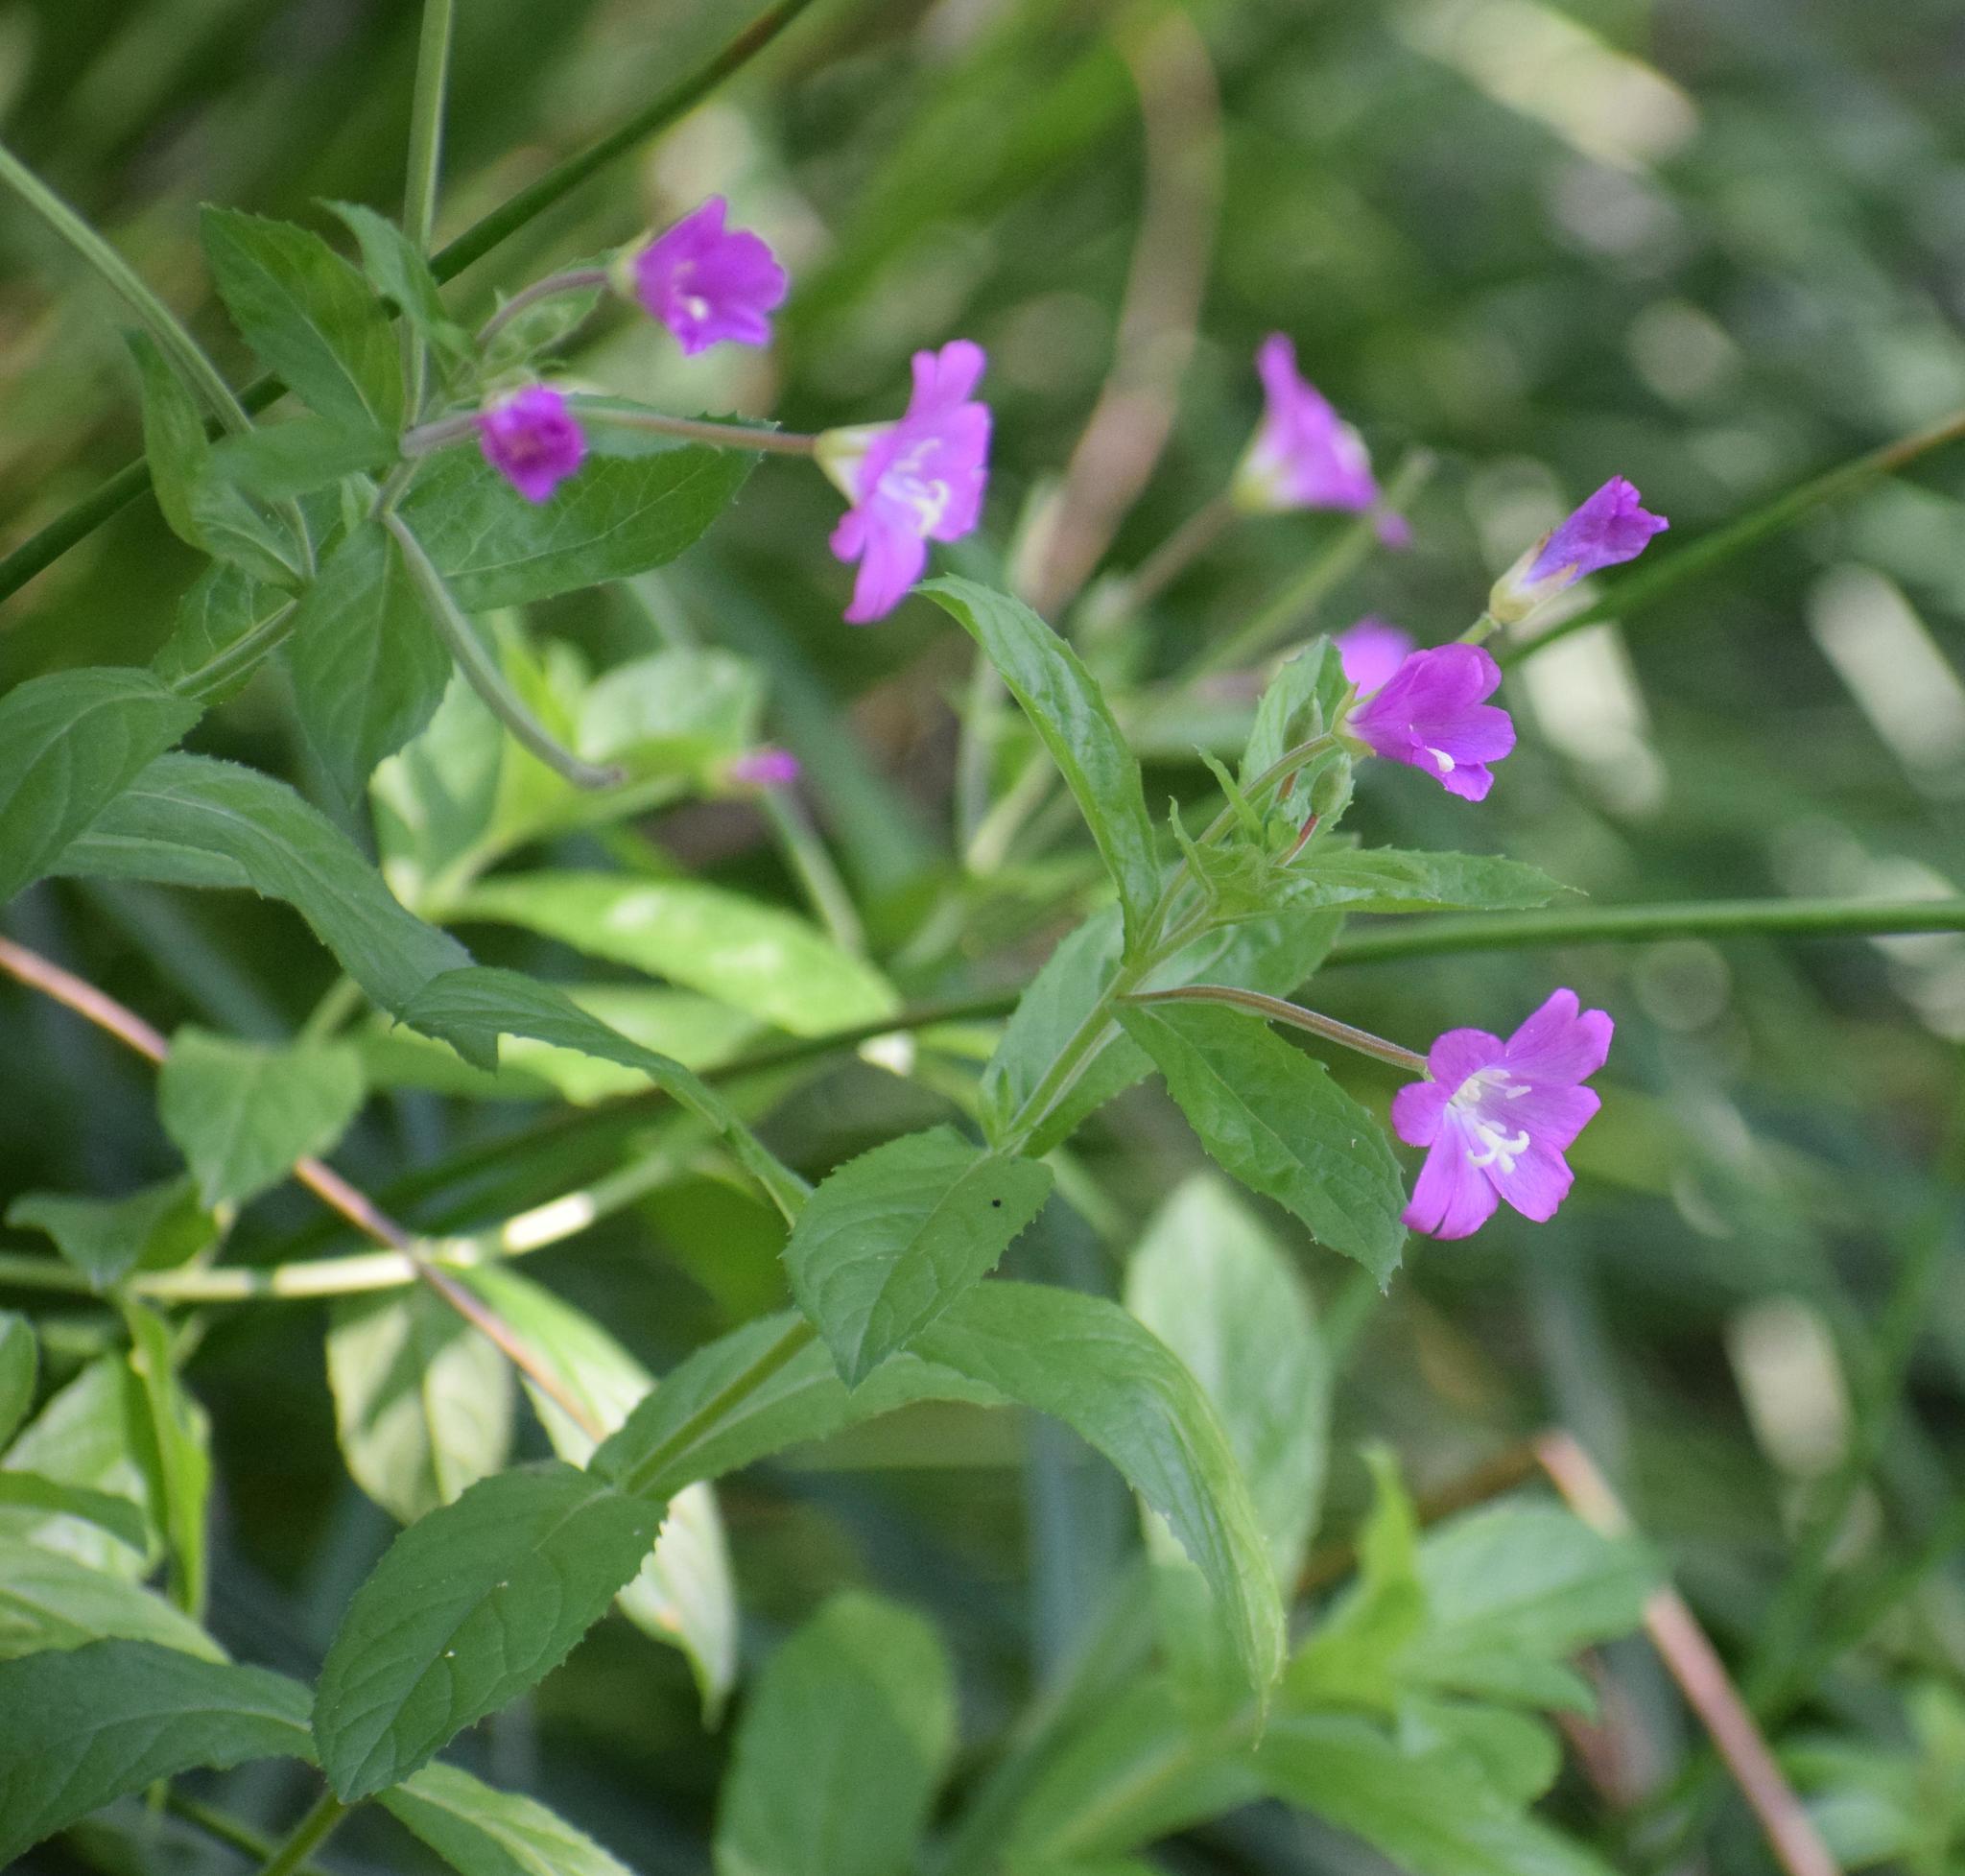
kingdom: Plantae
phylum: Tracheophyta
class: Magnoliopsida
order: Myrtales
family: Onagraceae
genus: Epilobium
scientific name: Epilobium hirsutum
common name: Great willowherb
